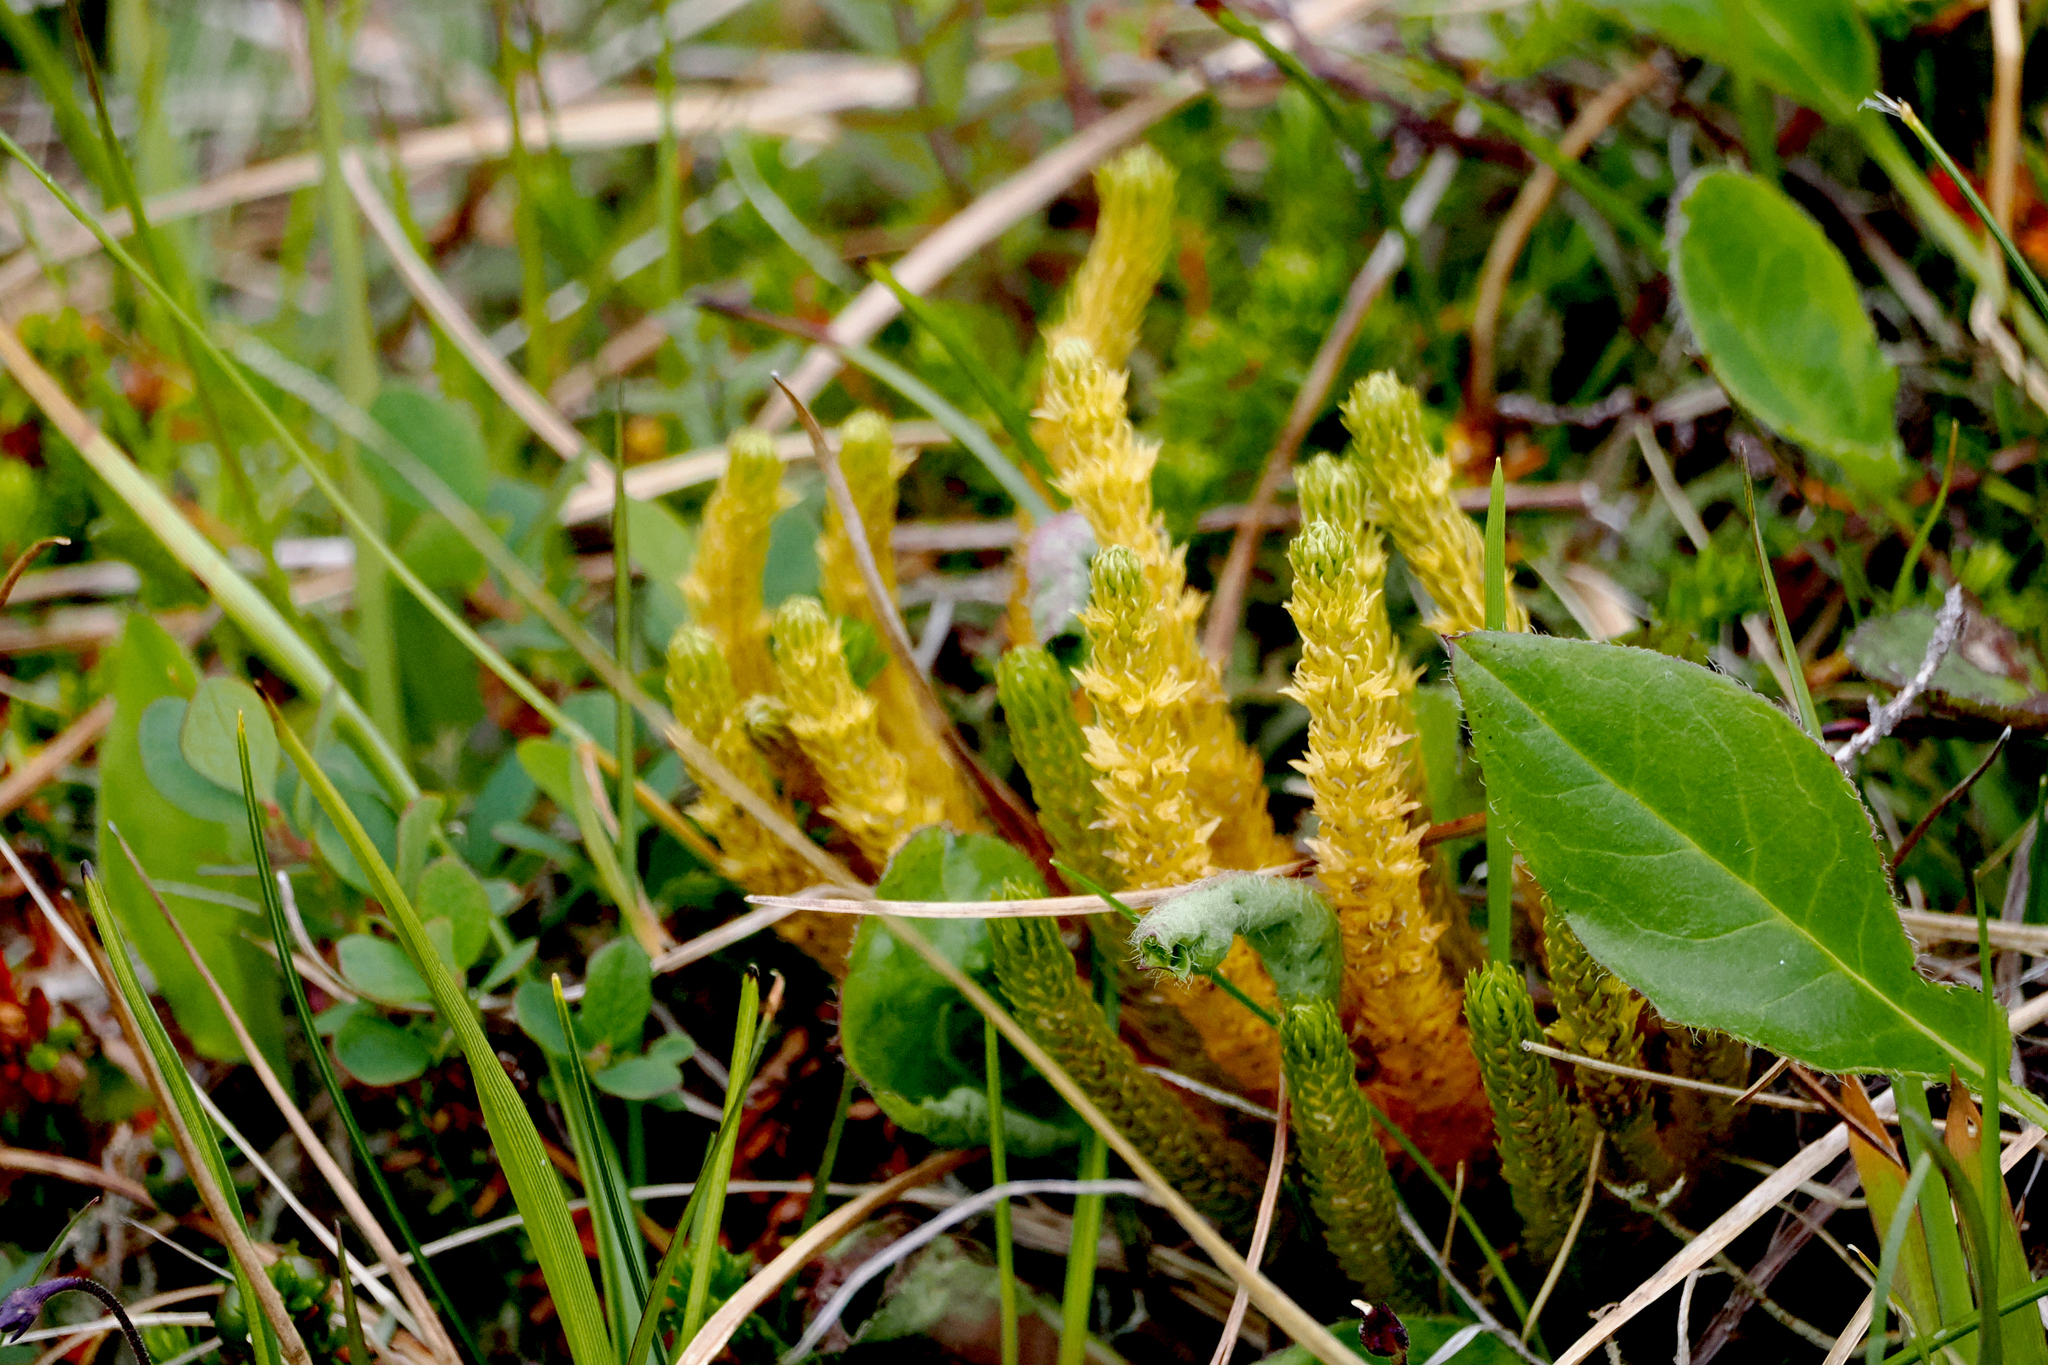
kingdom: Plantae
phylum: Tracheophyta
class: Lycopodiopsida
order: Lycopodiales
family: Lycopodiaceae
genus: Huperzia
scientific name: Huperzia selago
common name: Northern firmoss
